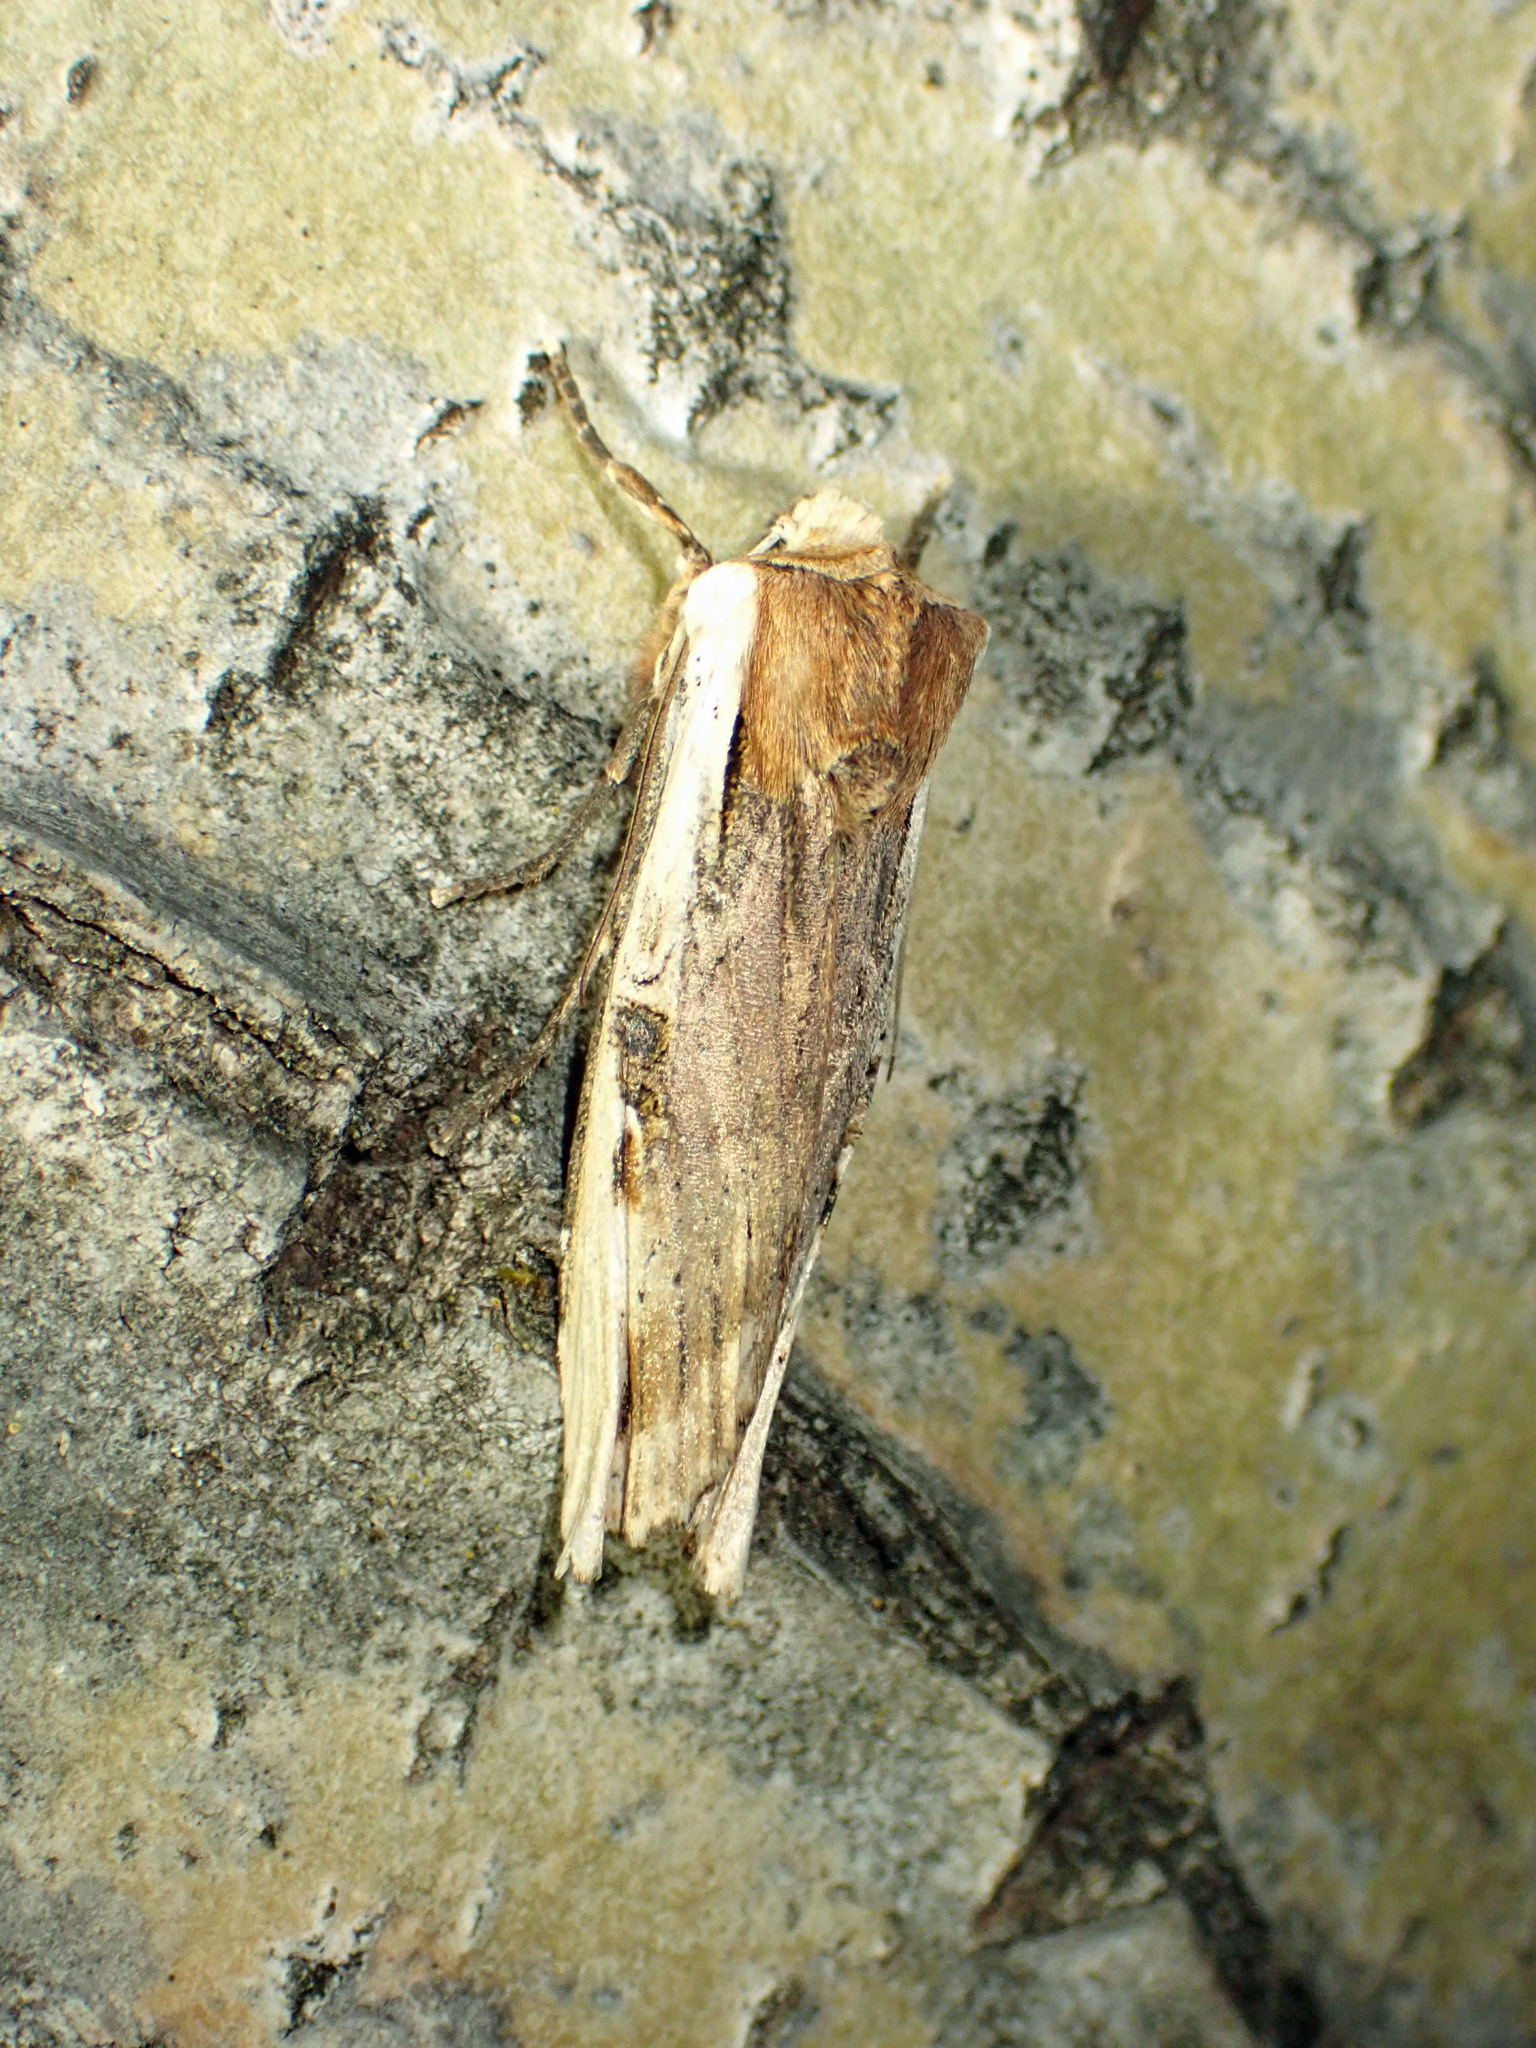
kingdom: Animalia
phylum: Arthropoda
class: Insecta
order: Lepidoptera
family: Noctuidae
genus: Xylena
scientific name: Xylena curvimacula
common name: Dot-and-dash swordgrass moth
